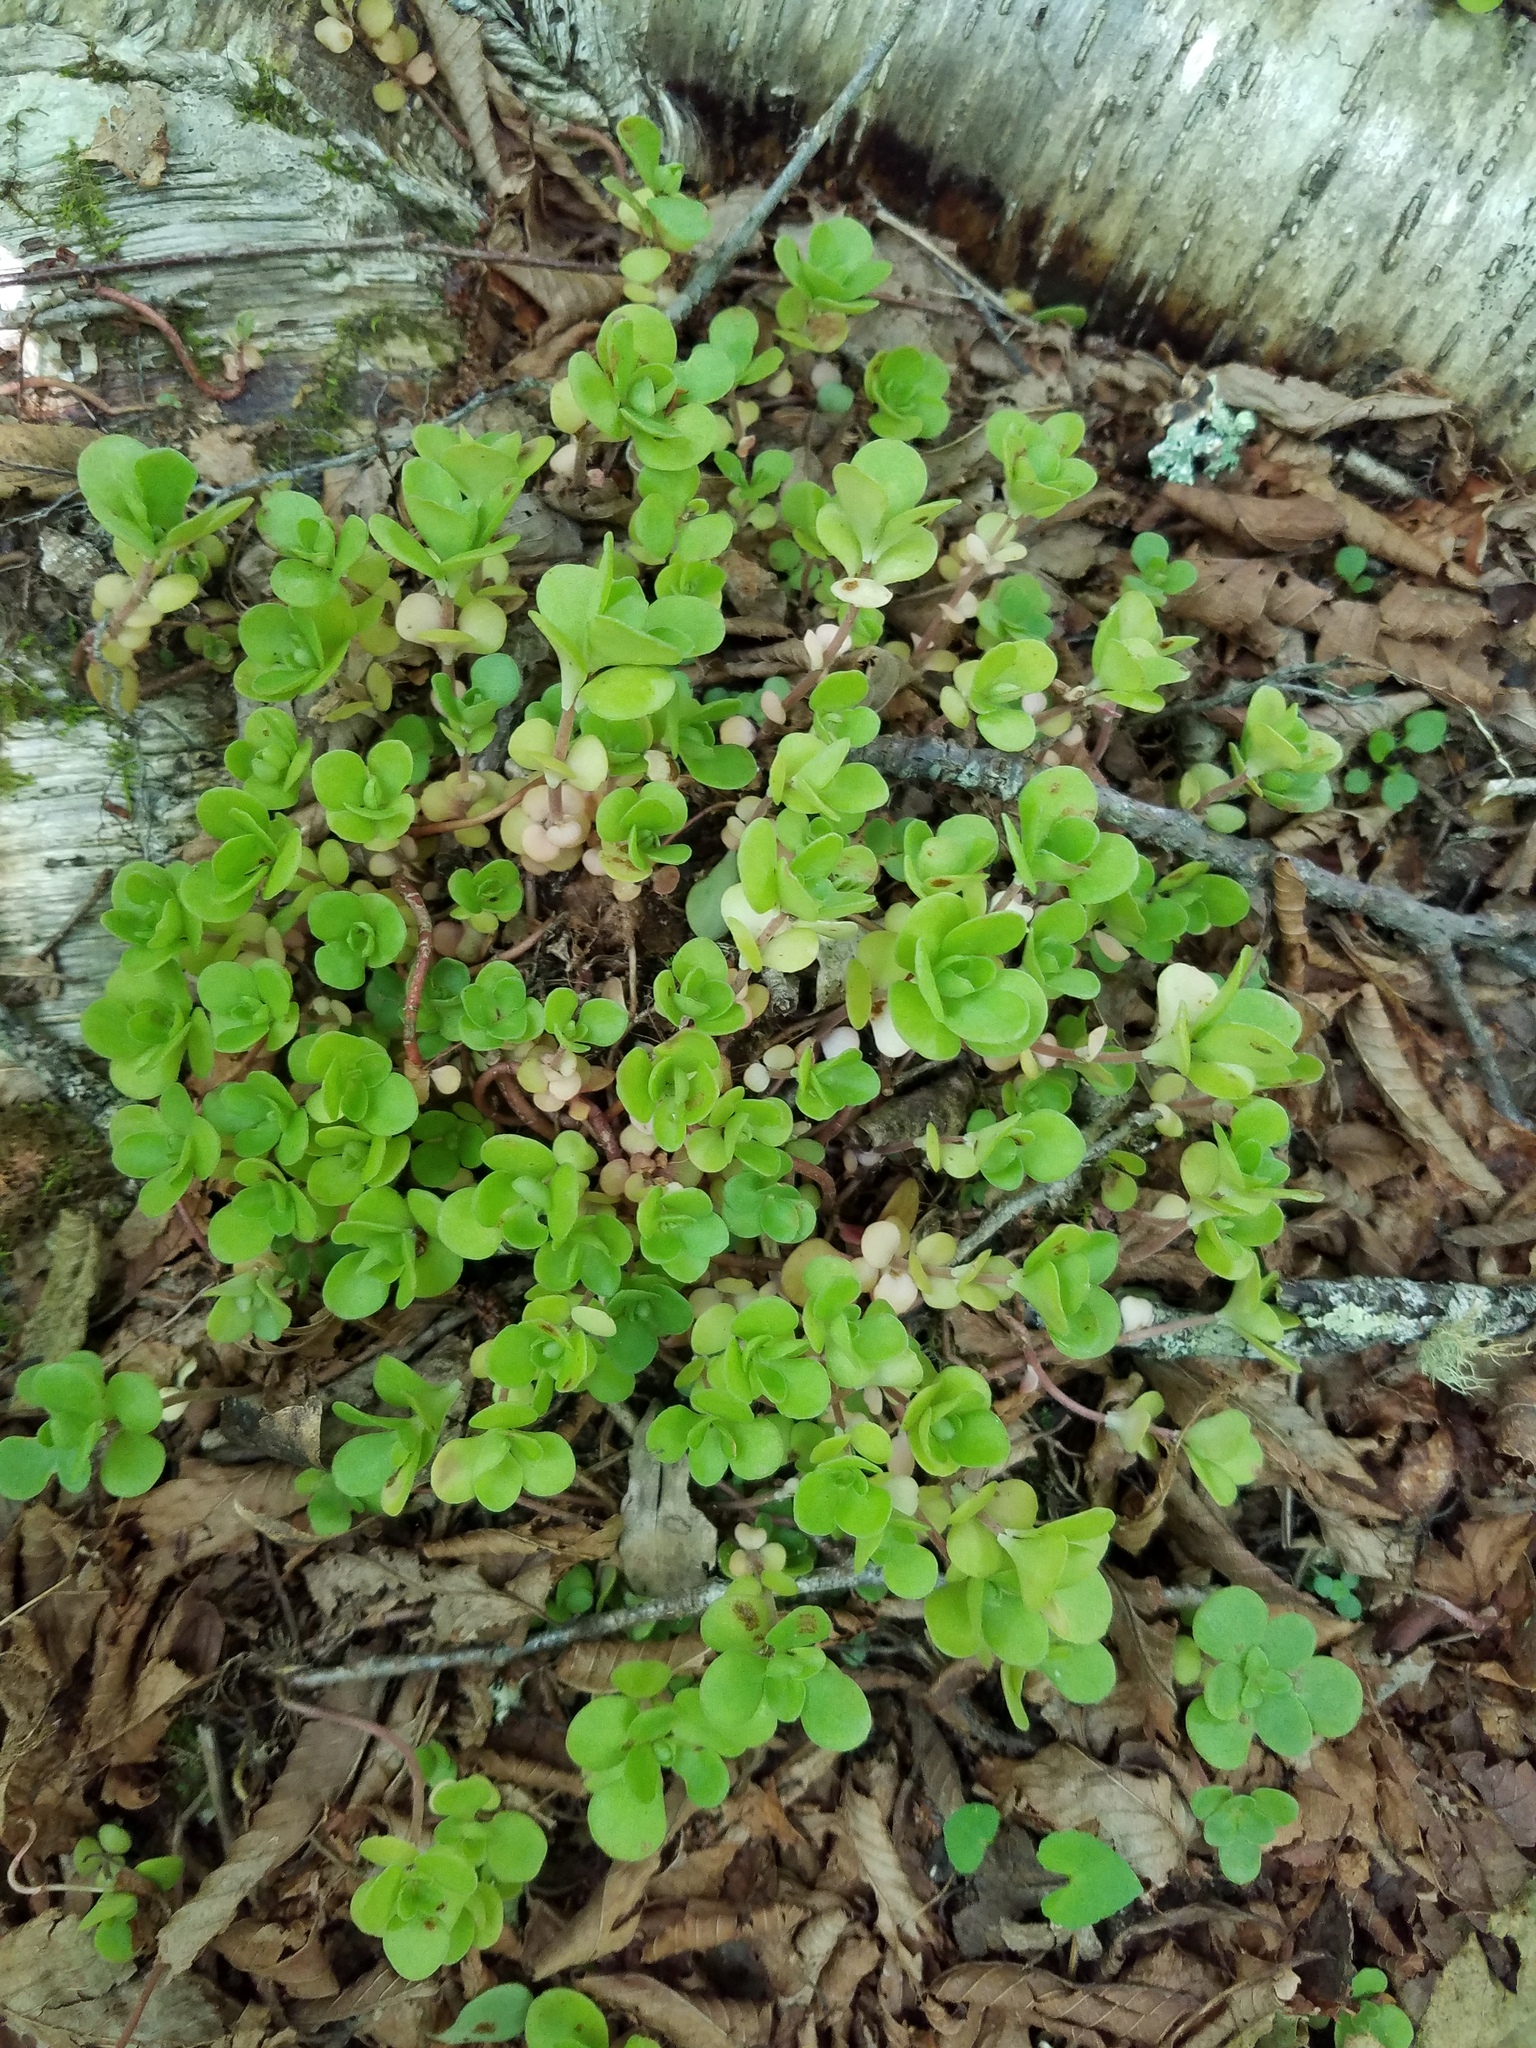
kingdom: Plantae
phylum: Tracheophyta
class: Magnoliopsida
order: Saxifragales
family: Crassulaceae
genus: Sedum
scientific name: Sedum ternatum
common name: Wild stonecrop
